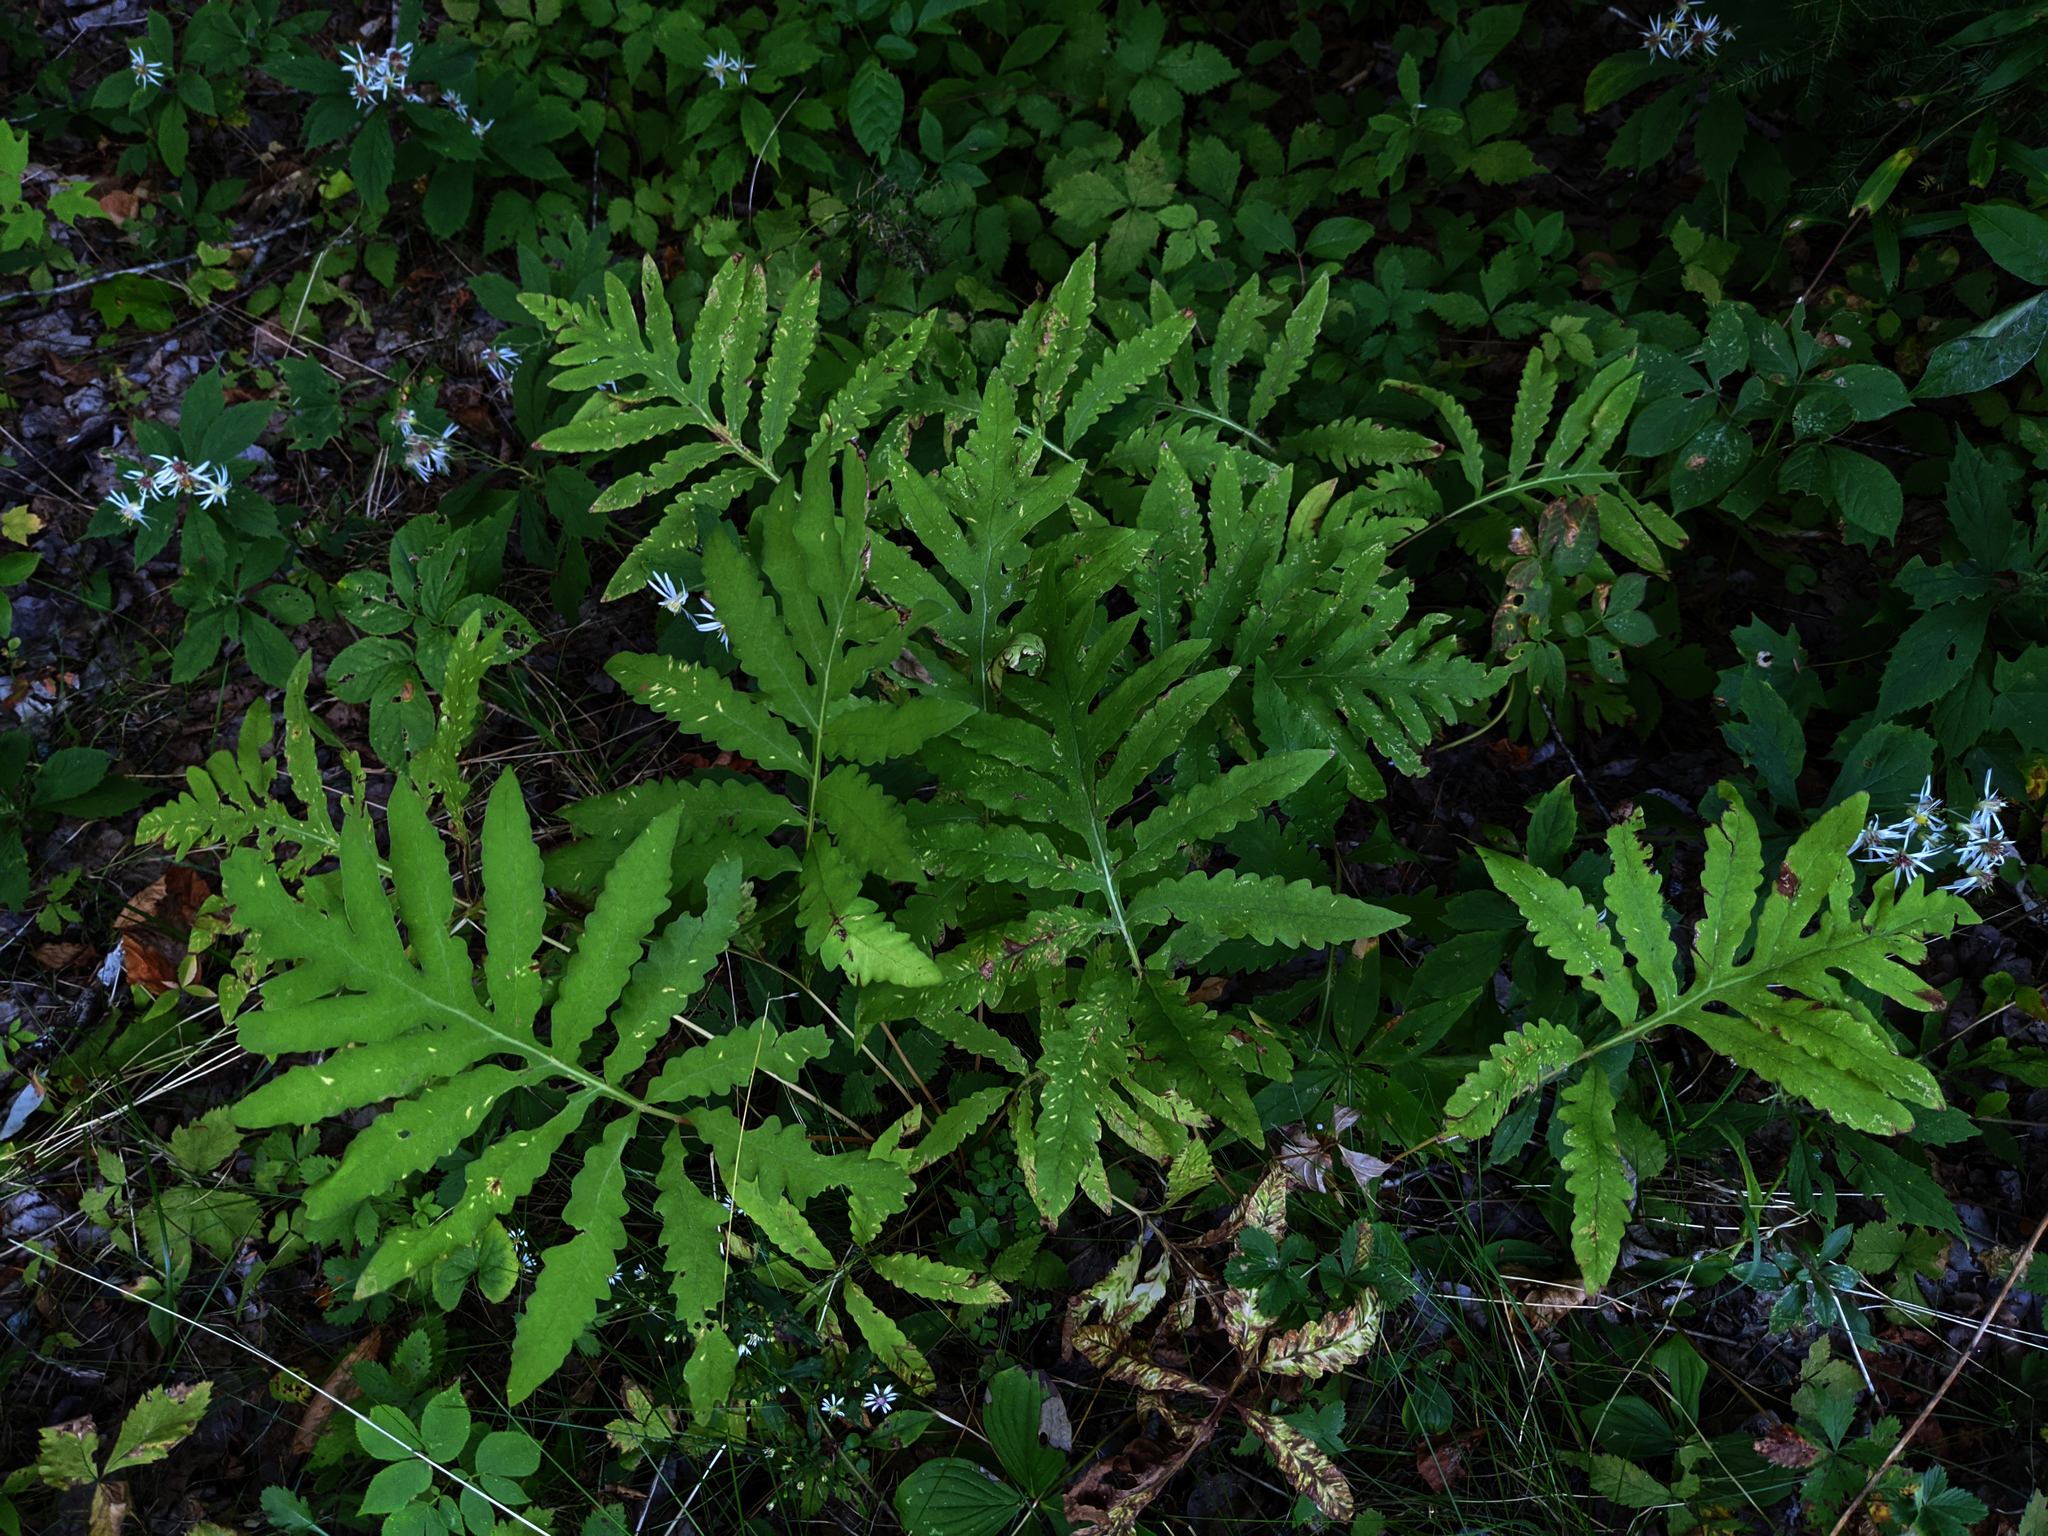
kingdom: Plantae
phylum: Tracheophyta
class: Polypodiopsida
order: Polypodiales
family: Onocleaceae
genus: Onoclea
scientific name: Onoclea sensibilis
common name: Sensitive fern
